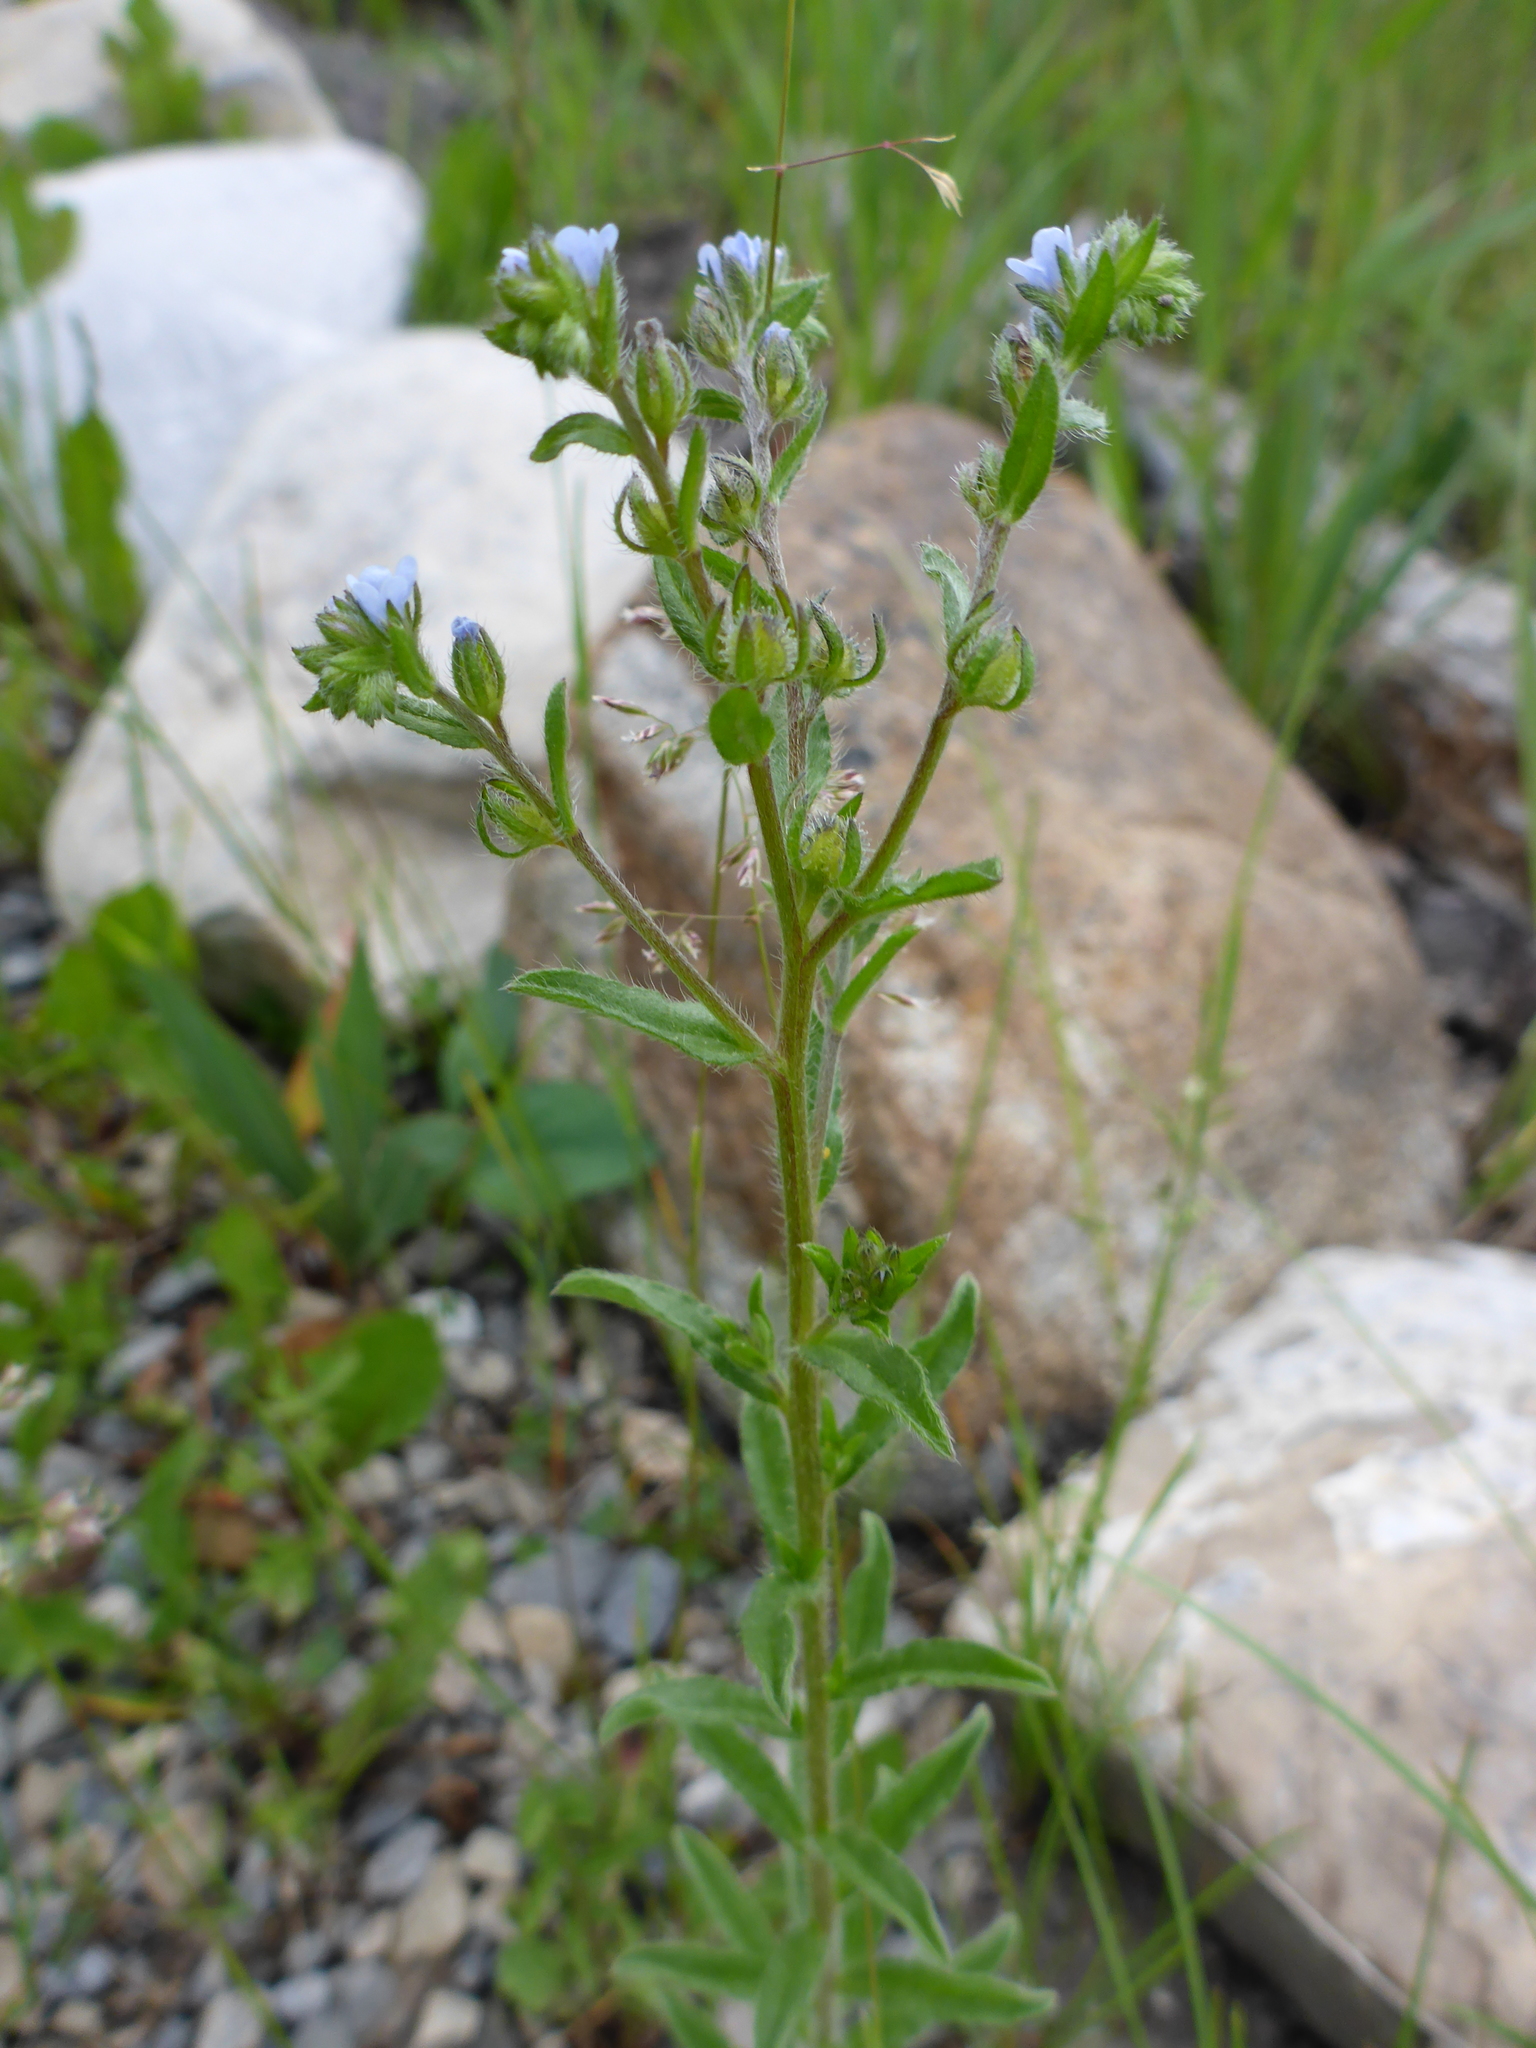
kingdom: Plantae
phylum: Tracheophyta
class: Magnoliopsida
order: Boraginales
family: Boraginaceae
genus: Lappula
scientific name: Lappula squarrosa
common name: European stickseed
